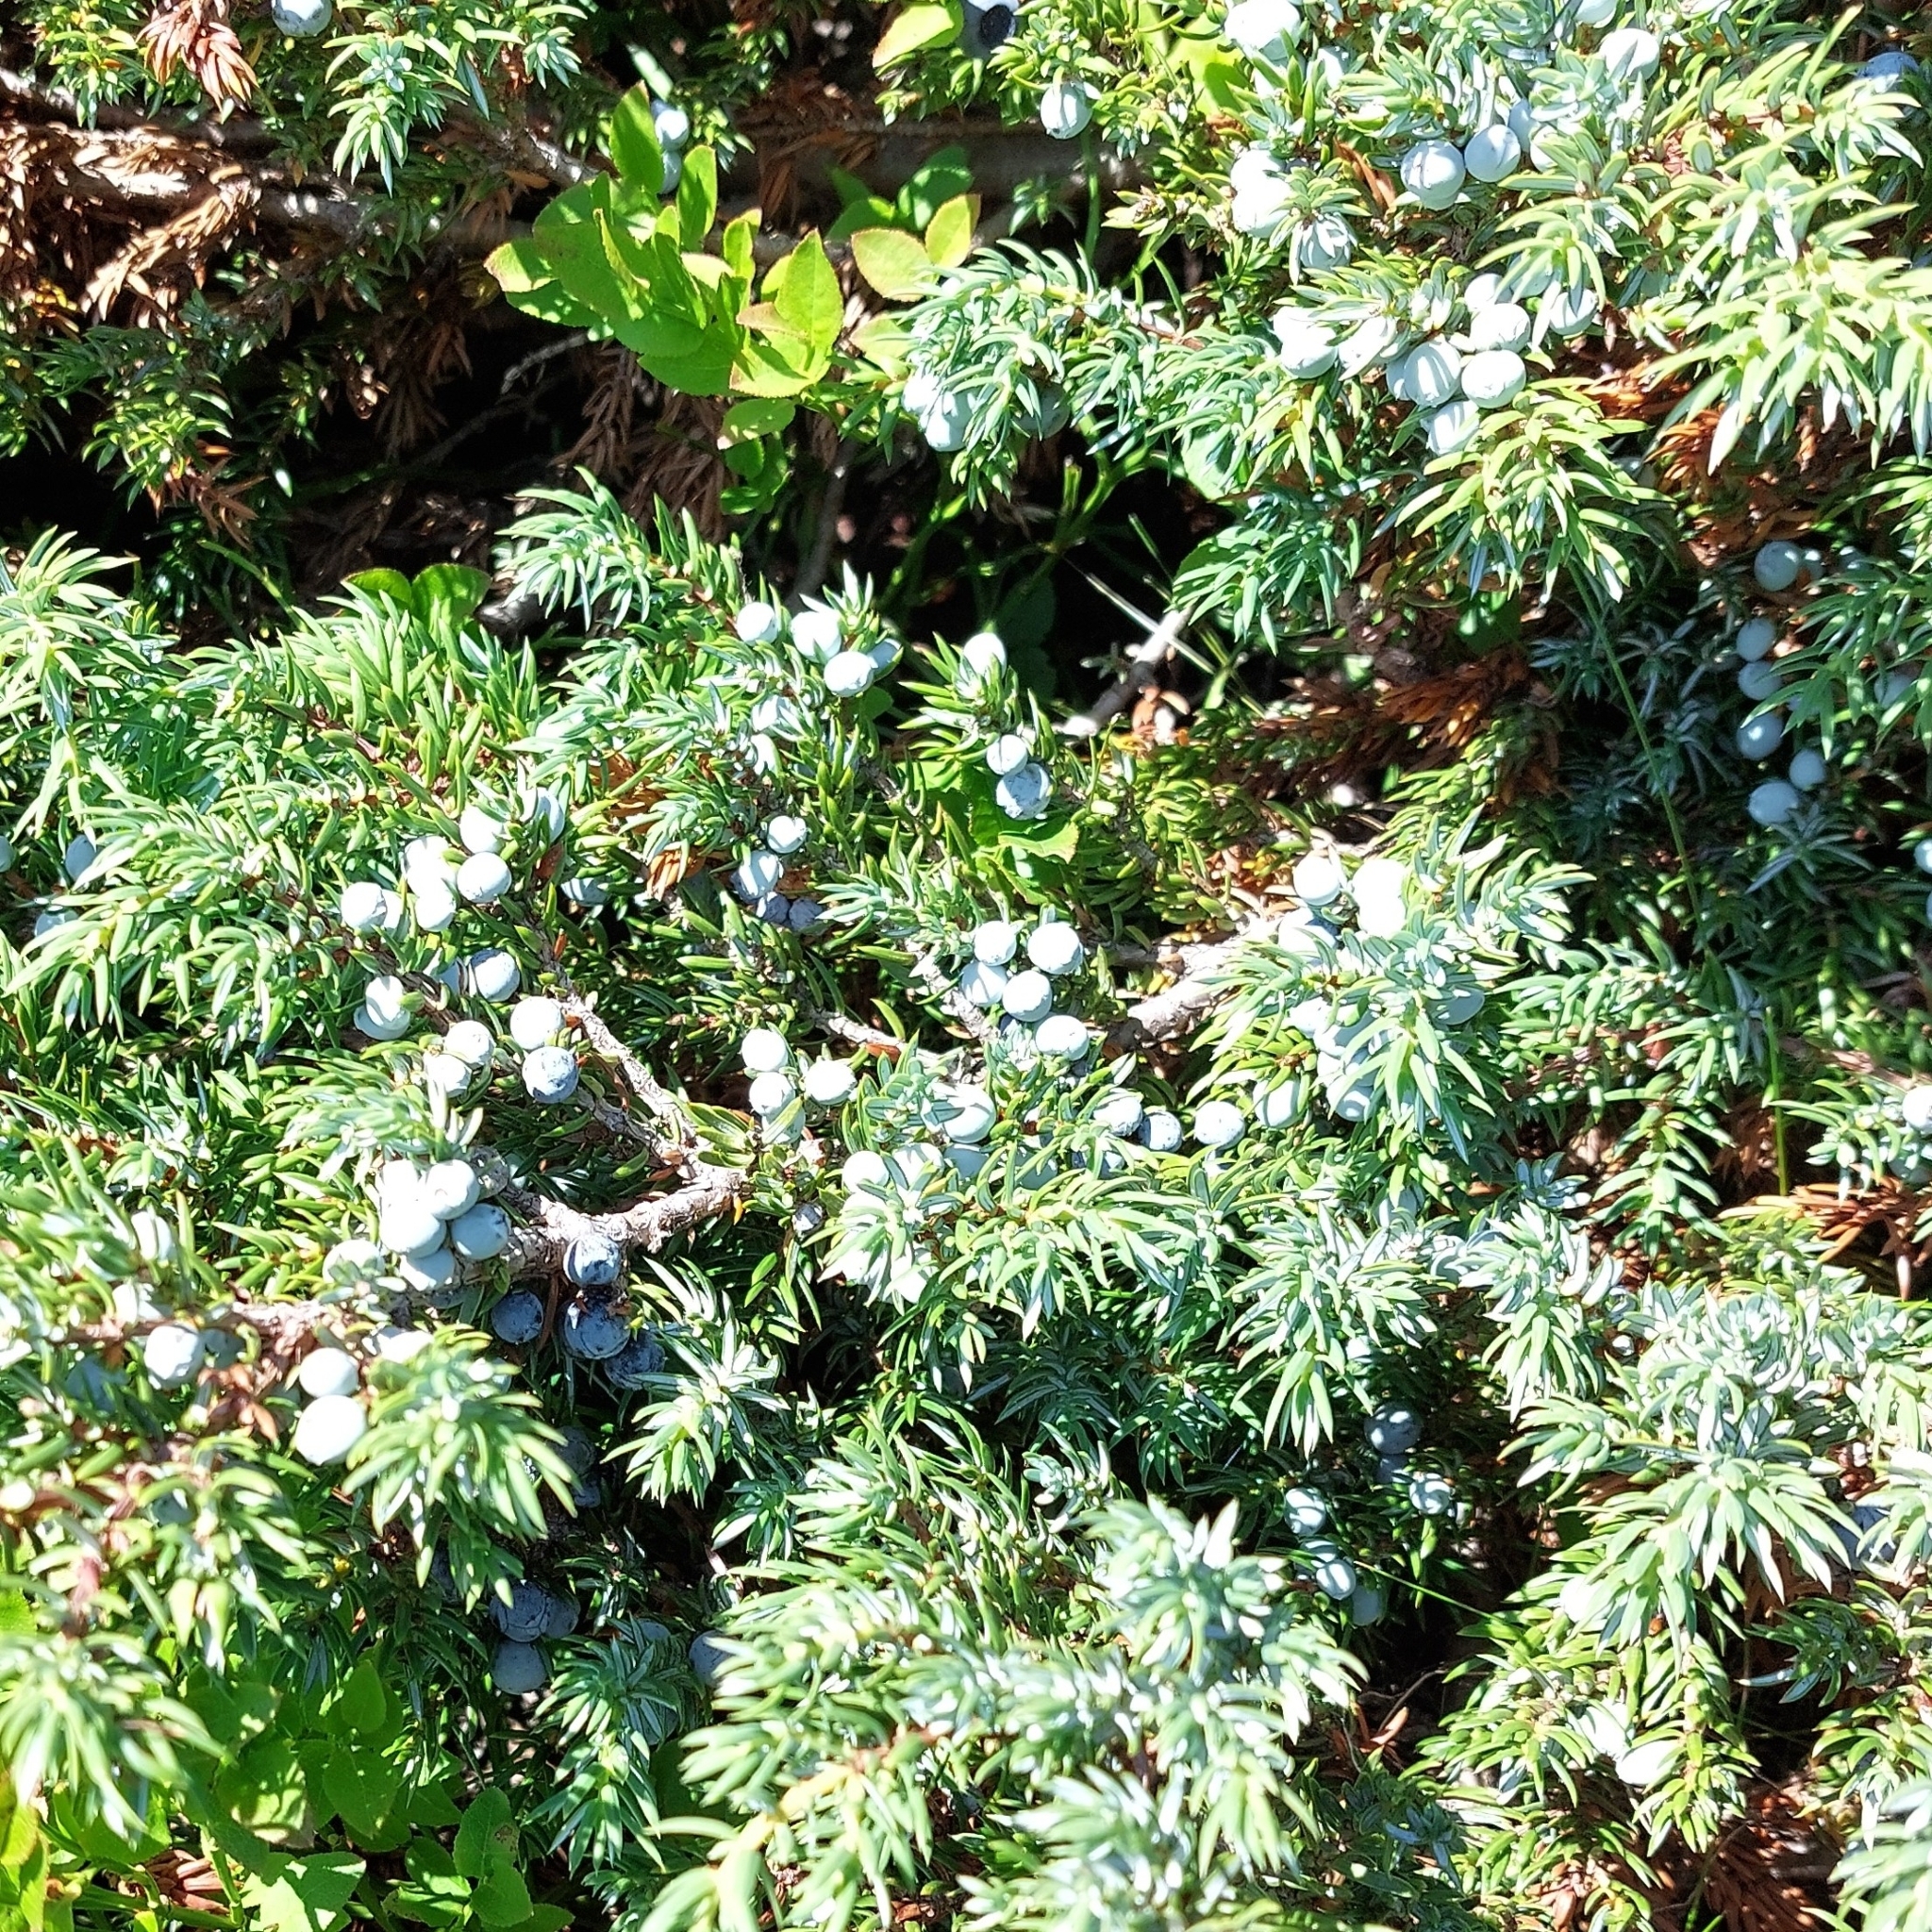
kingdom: Plantae
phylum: Tracheophyta
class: Pinopsida
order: Pinales
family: Cupressaceae
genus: Juniperus
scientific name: Juniperus communis
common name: Common juniper
